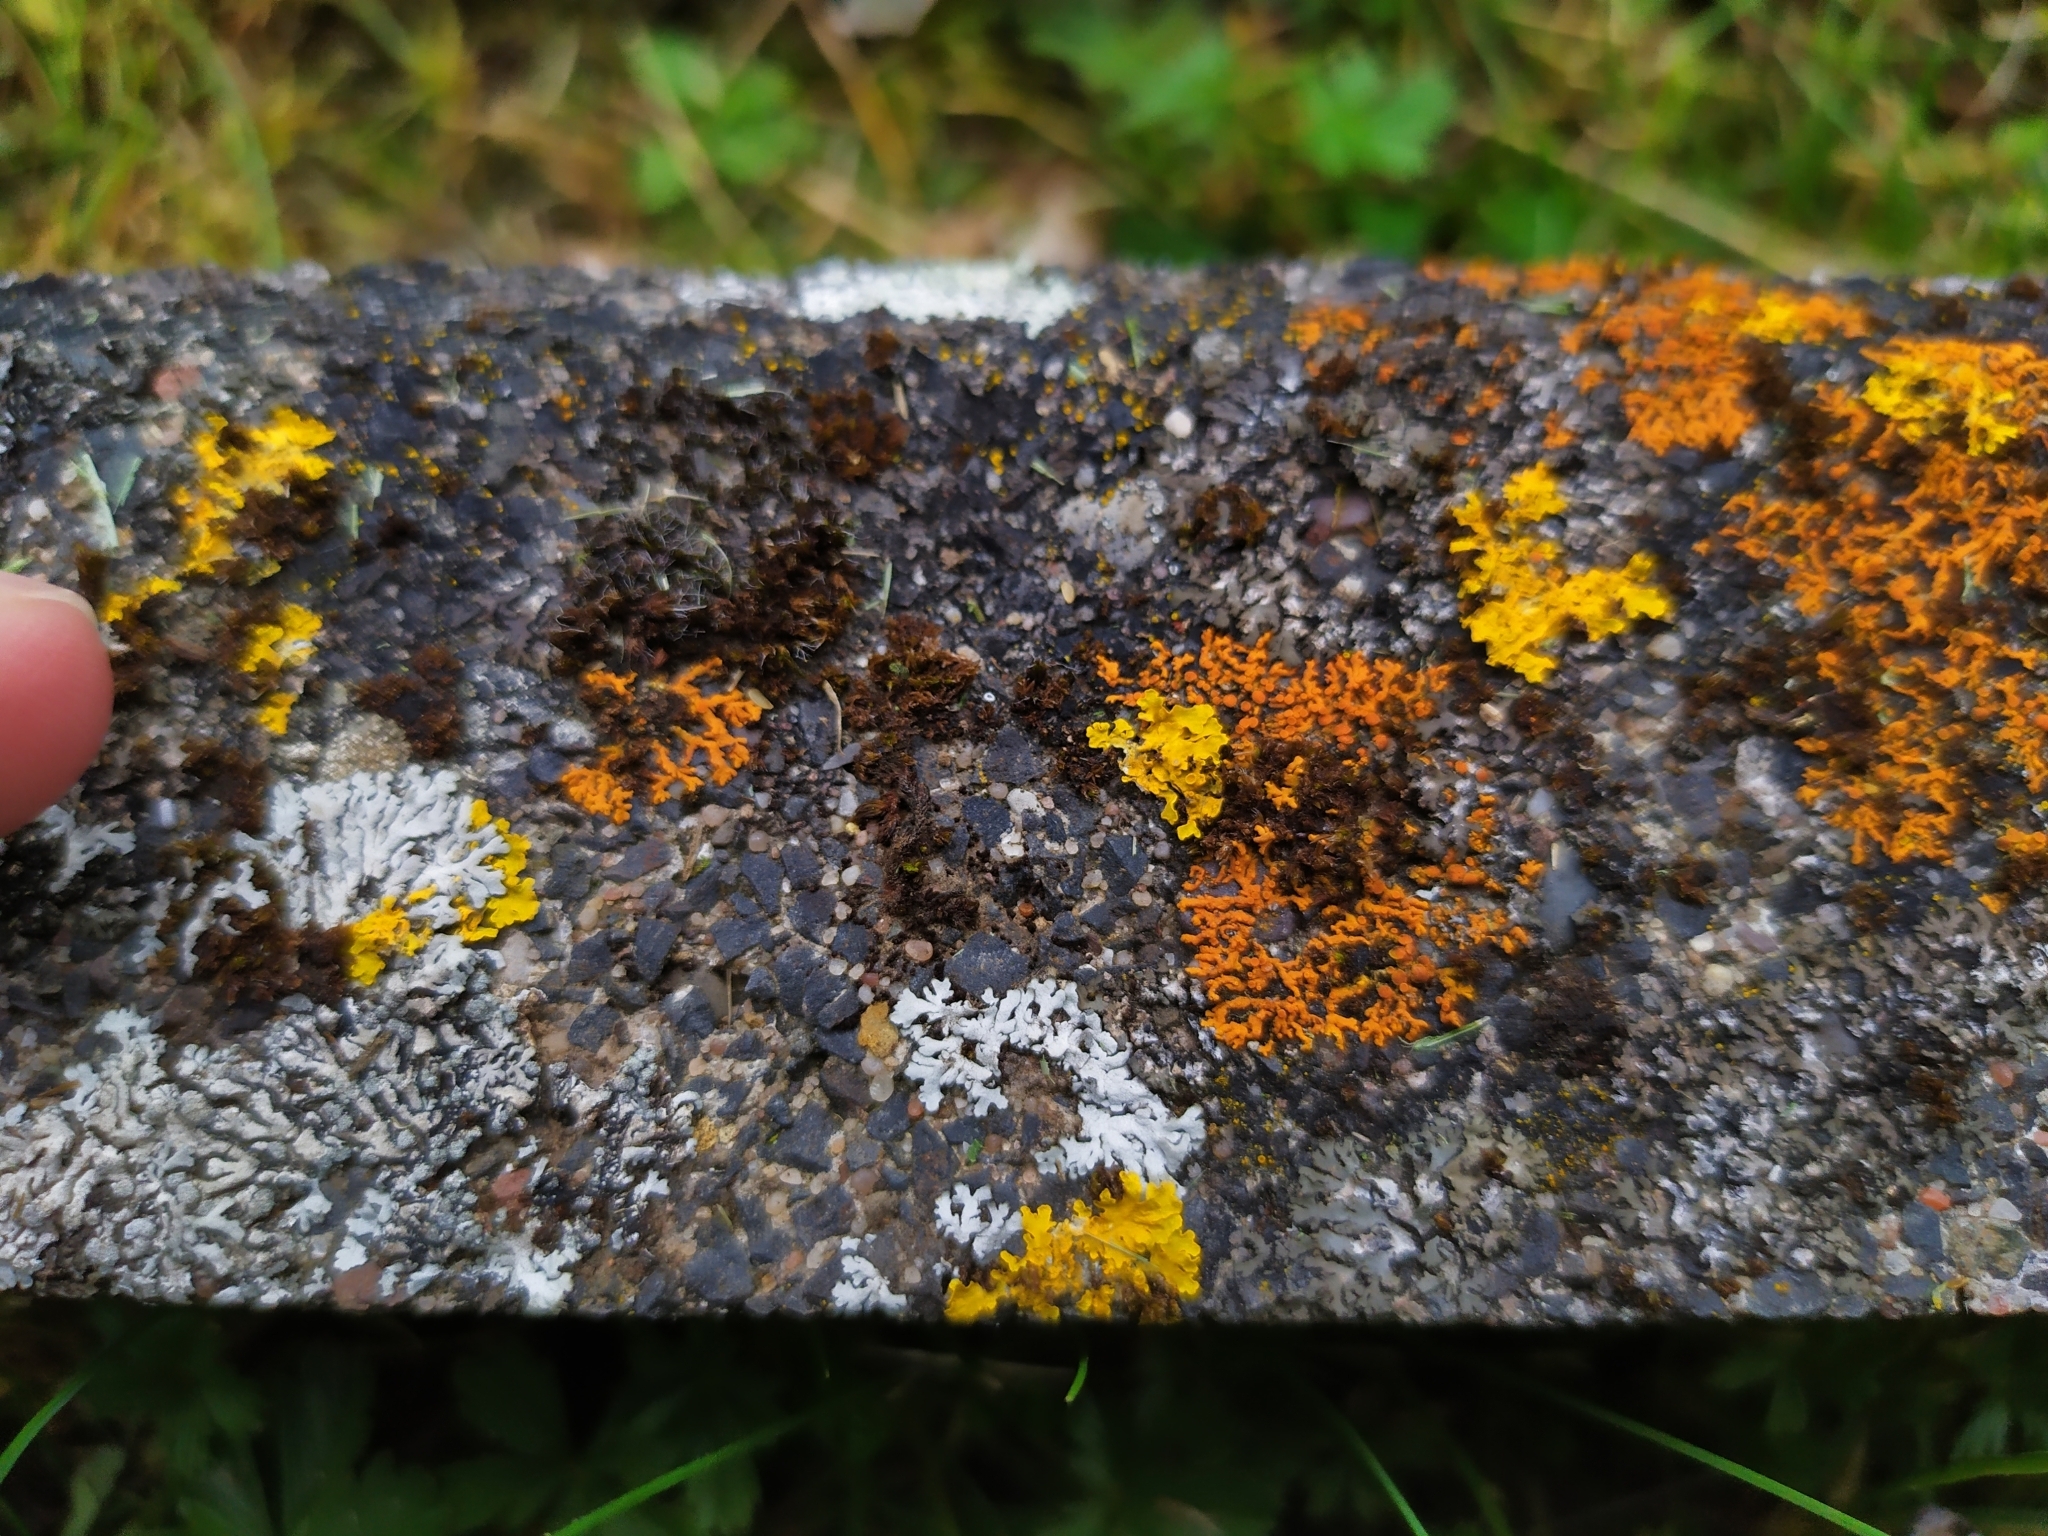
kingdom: Fungi
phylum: Ascomycota
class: Lecanoromycetes
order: Caliciales
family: Physciaceae
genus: Phaeophyscia
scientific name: Phaeophyscia orbicularis
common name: Mealy shadow lichen
